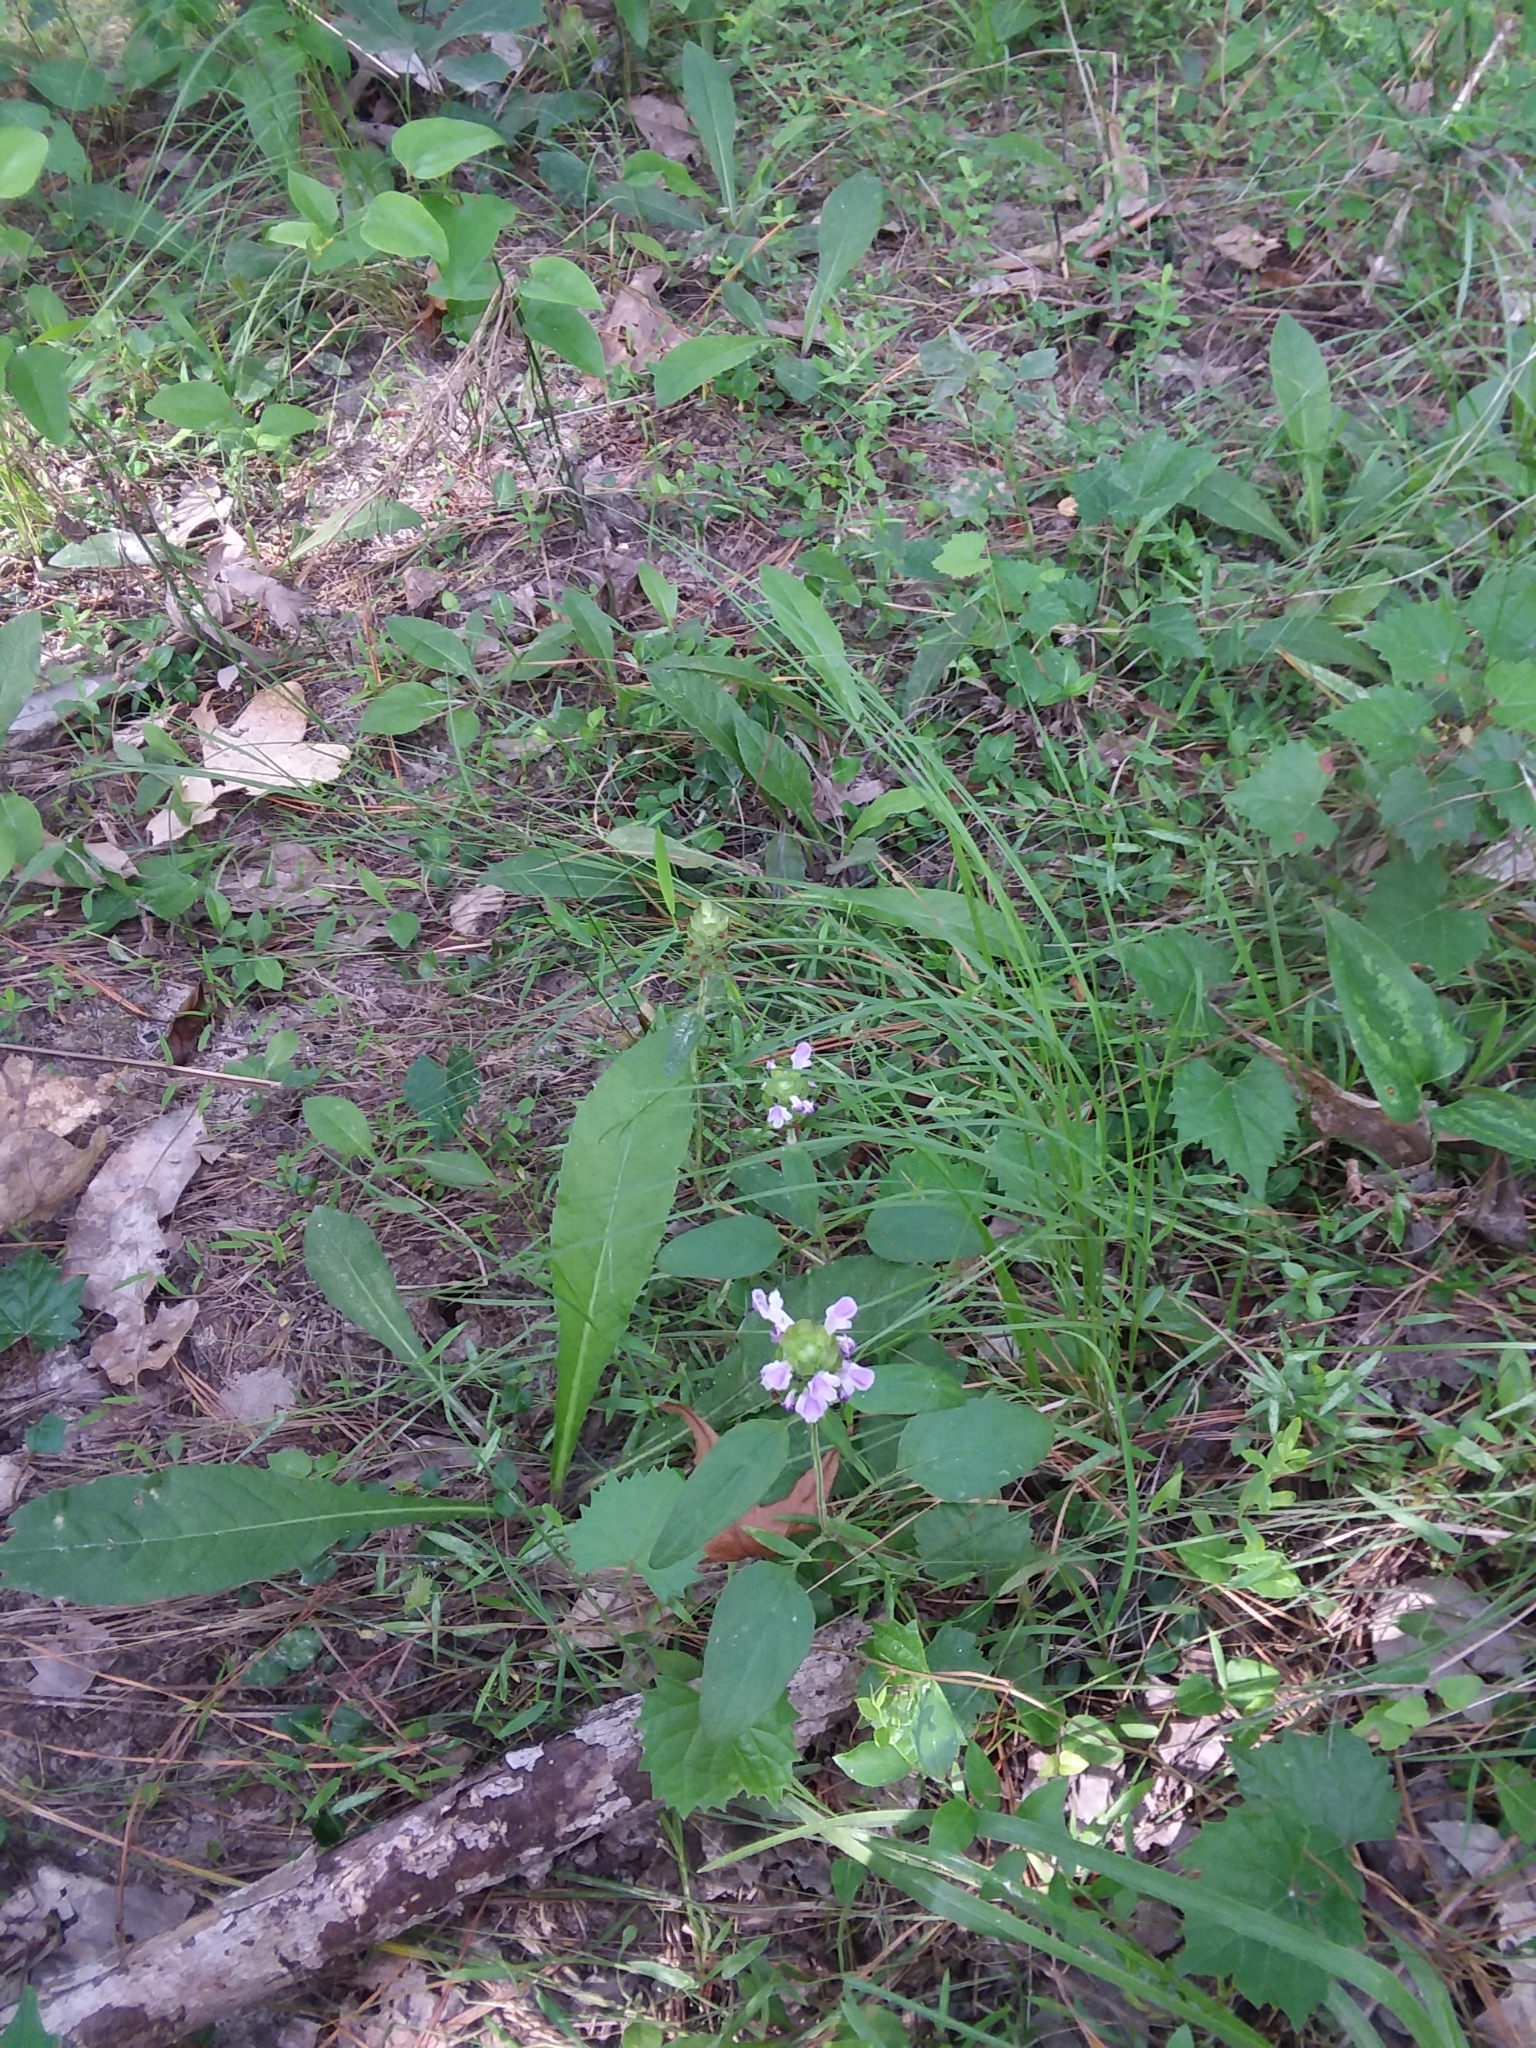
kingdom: Plantae
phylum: Tracheophyta
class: Magnoliopsida
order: Lamiales
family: Lamiaceae
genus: Prunella
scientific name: Prunella vulgaris
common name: Heal-all
